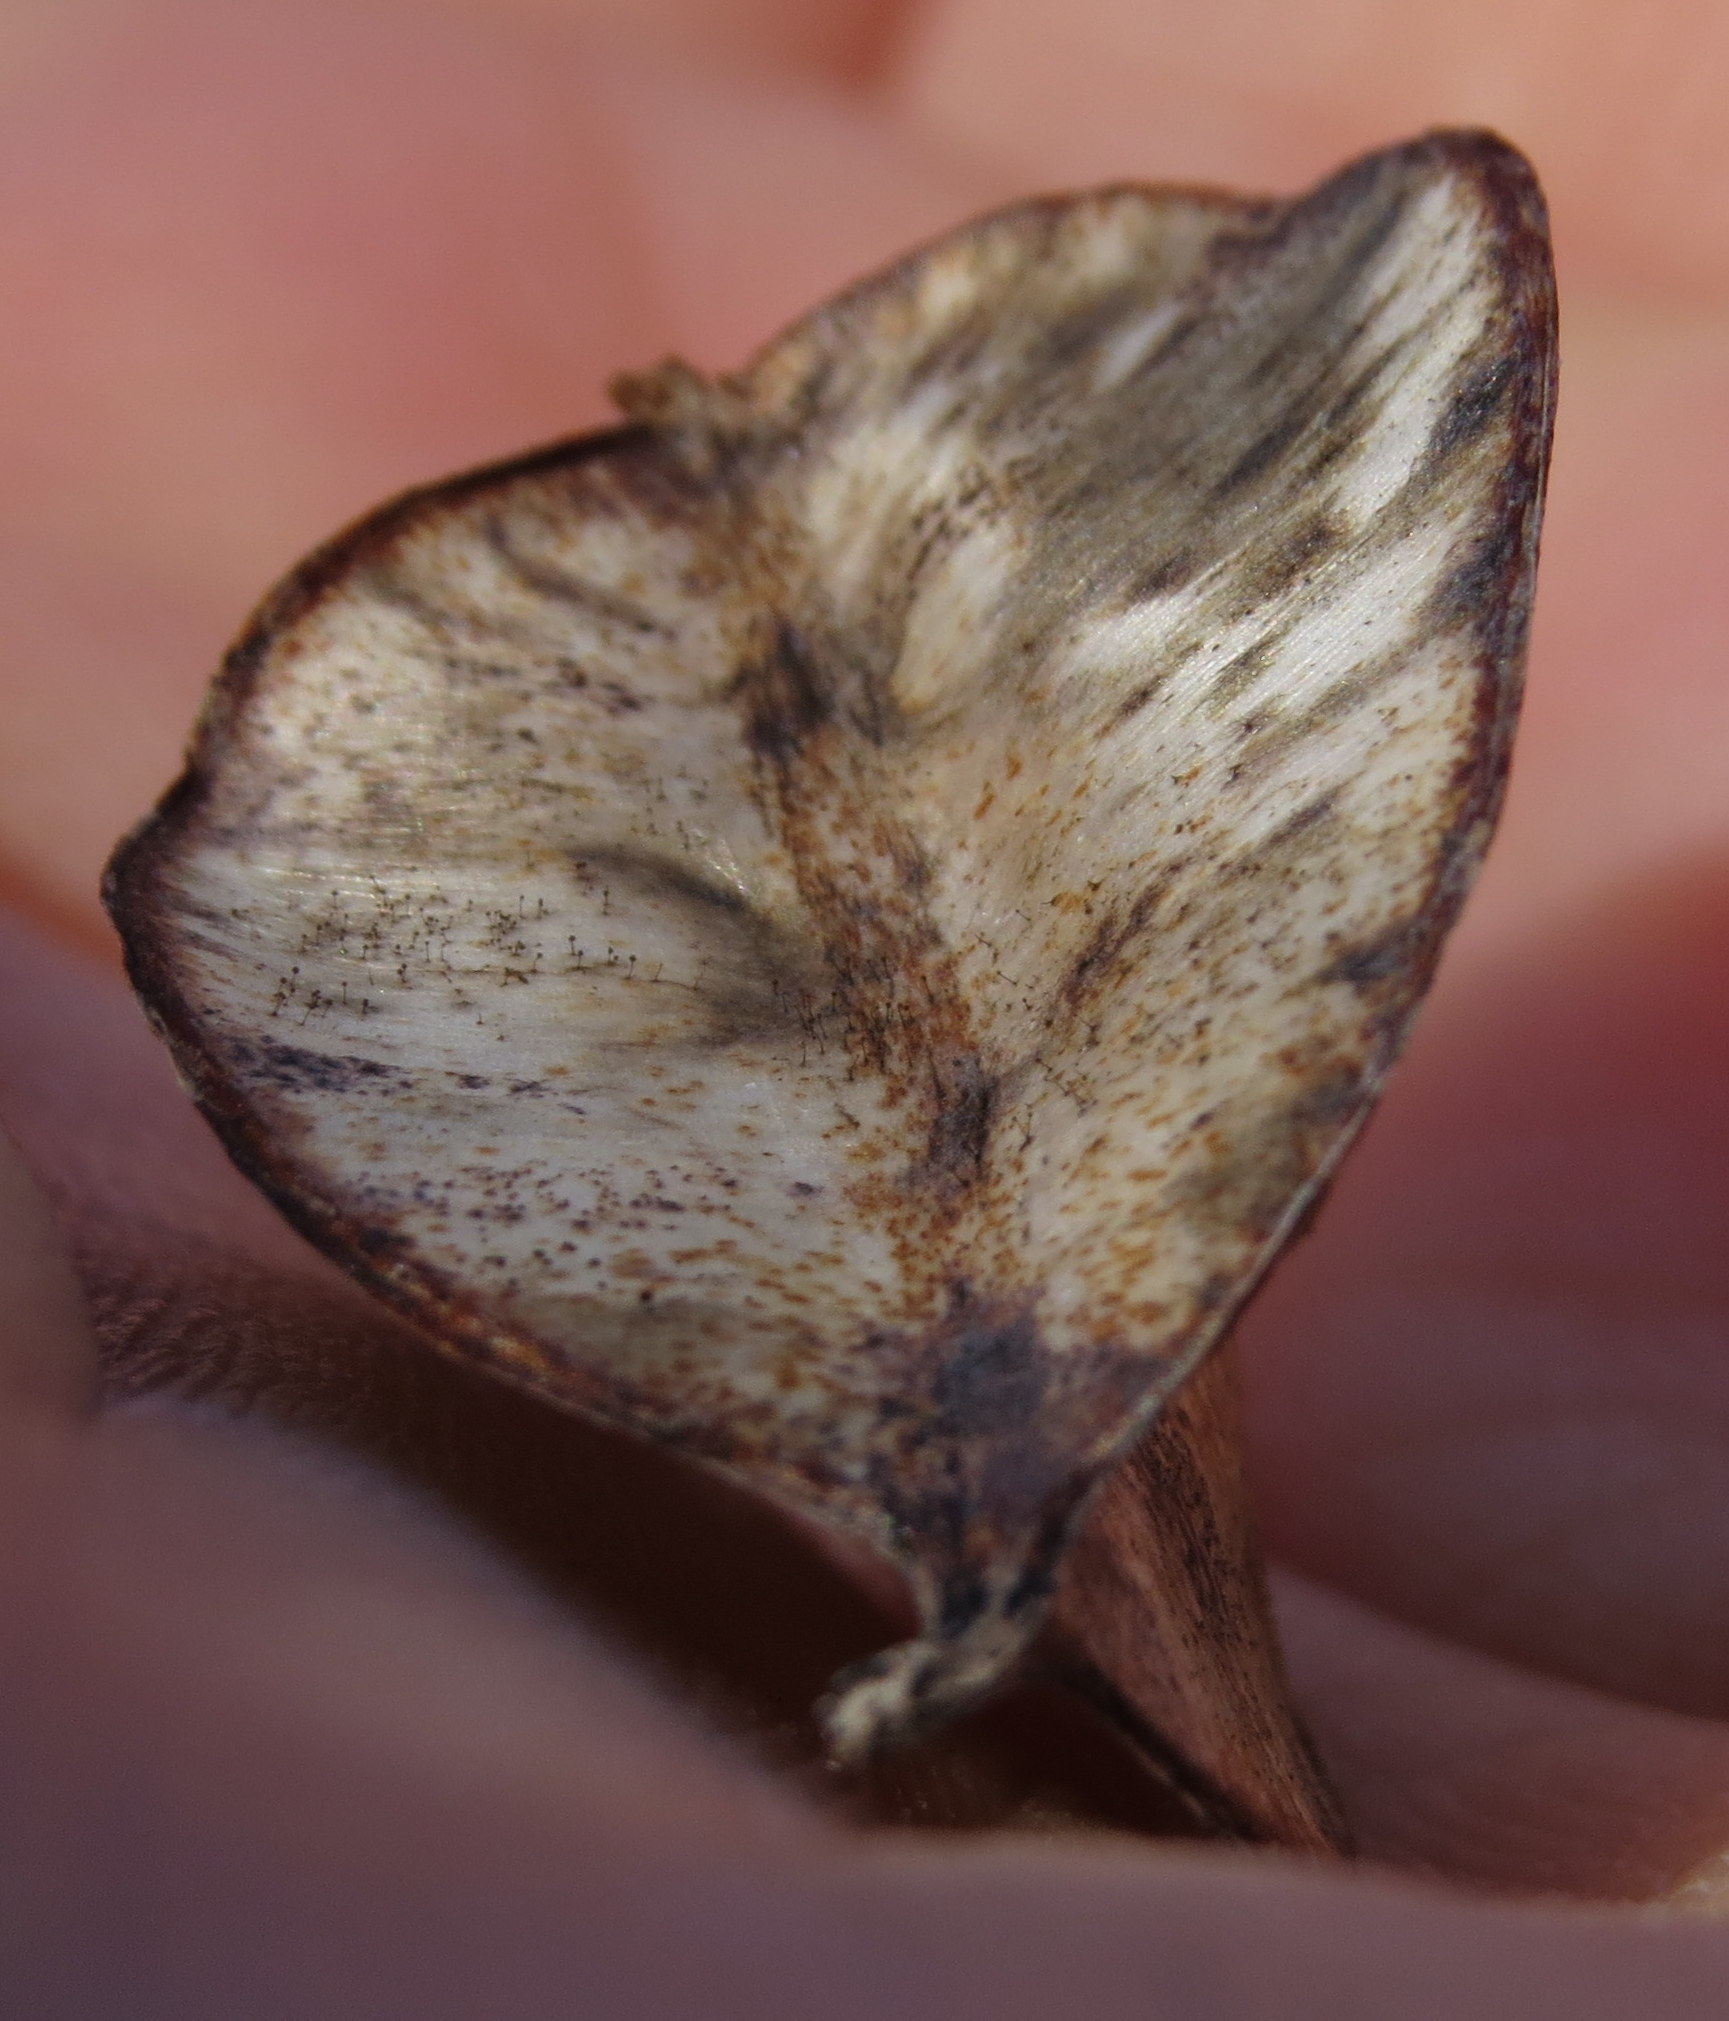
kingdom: Plantae
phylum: Tracheophyta
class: Liliopsida
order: Dioscoreales
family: Dioscoreaceae
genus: Dioscorea
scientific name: Dioscorea villosa
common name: Wild yam
